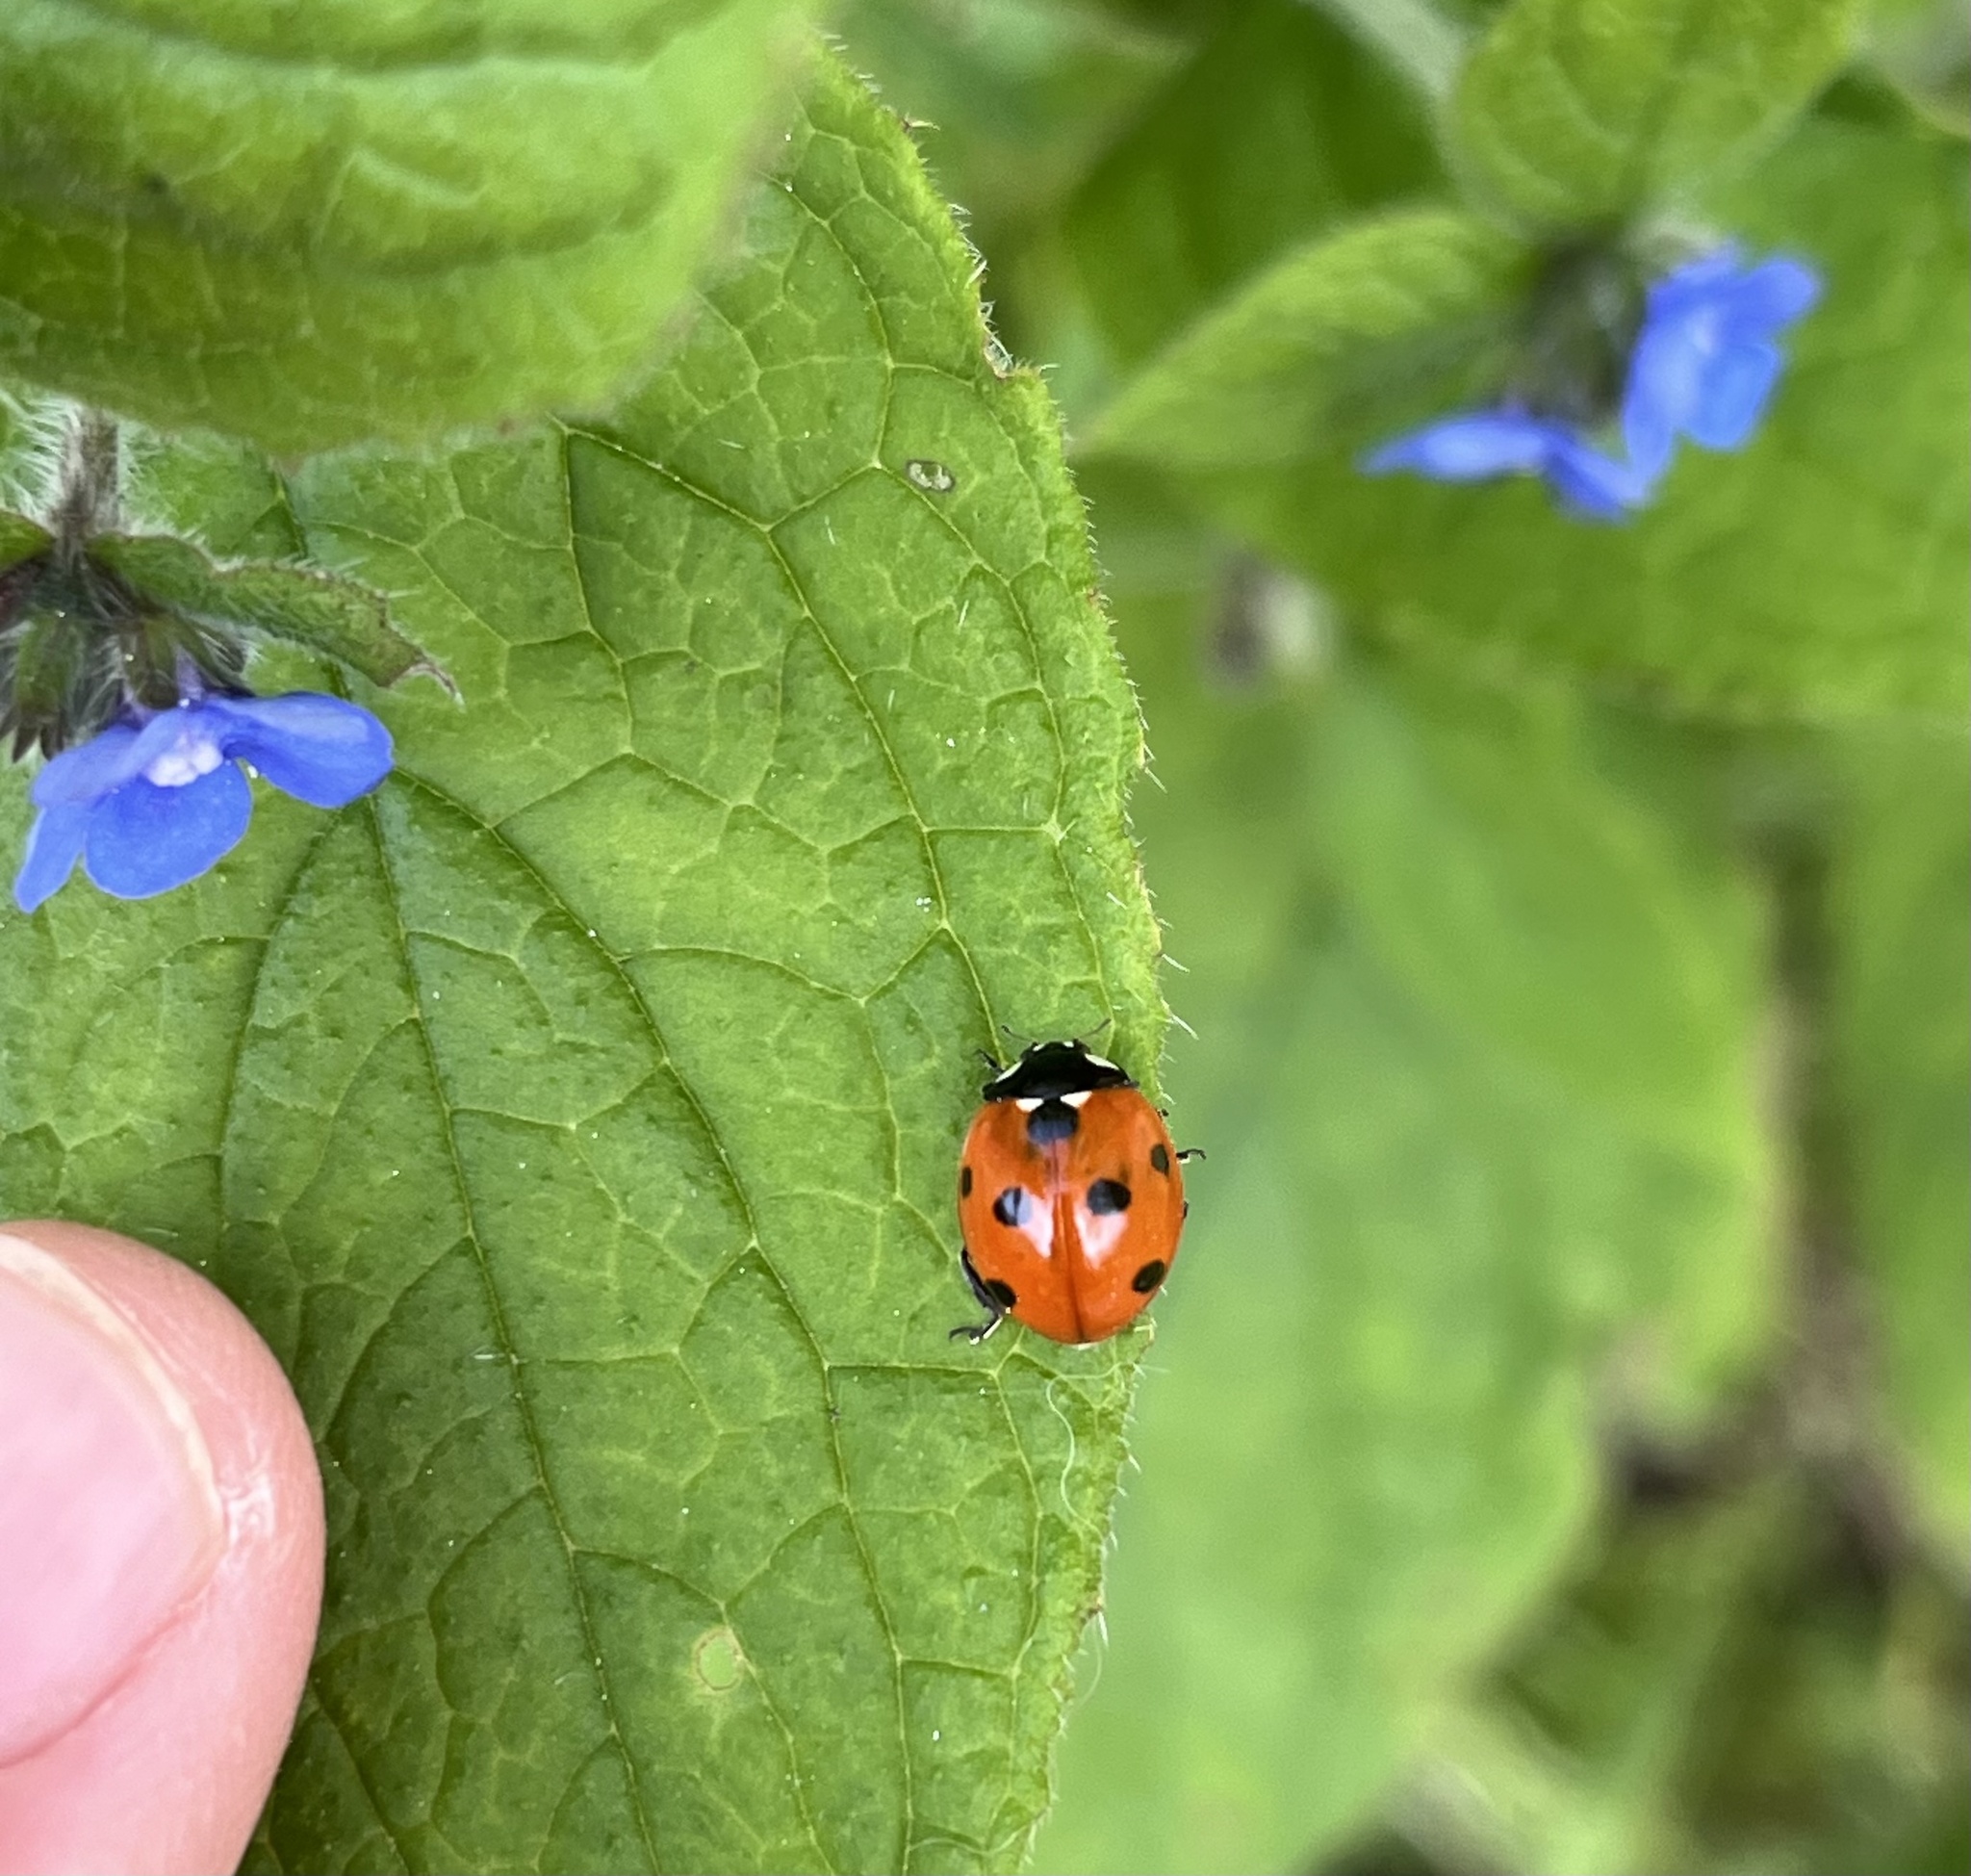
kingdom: Animalia
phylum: Arthropoda
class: Insecta
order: Coleoptera
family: Coccinellidae
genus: Coccinella
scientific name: Coccinella septempunctata
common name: Sevenspotted lady beetle
